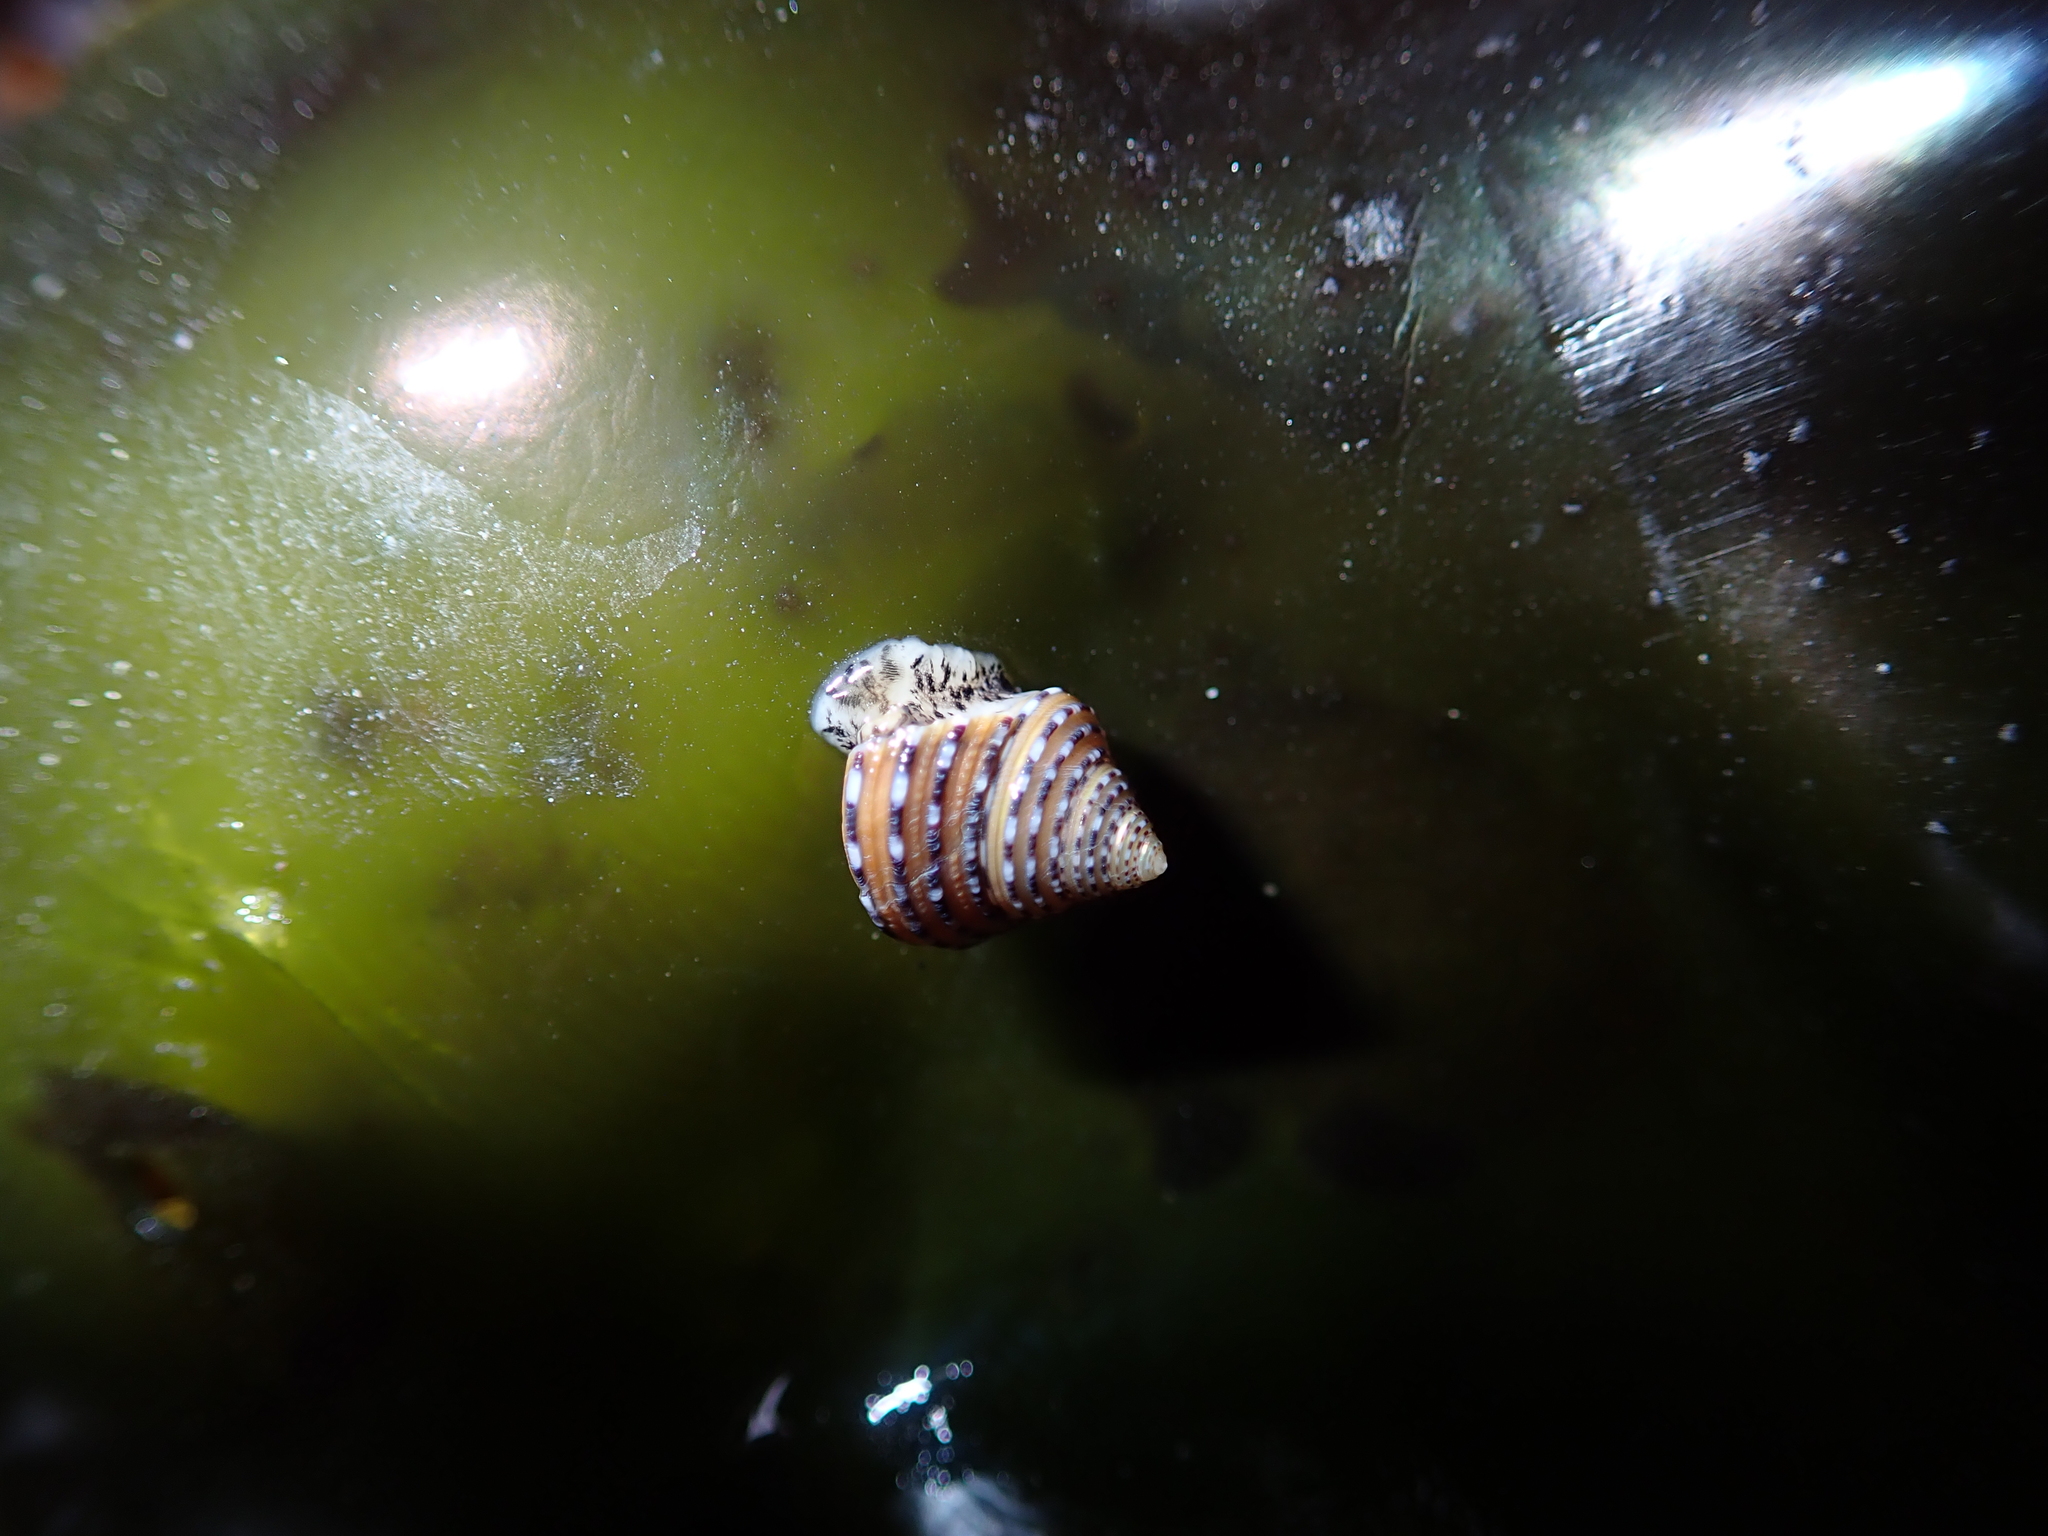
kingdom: Animalia
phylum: Mollusca
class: Gastropoda
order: Trochida
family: Calliostomatidae
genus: Calliostoma
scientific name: Calliostoma tricolor
